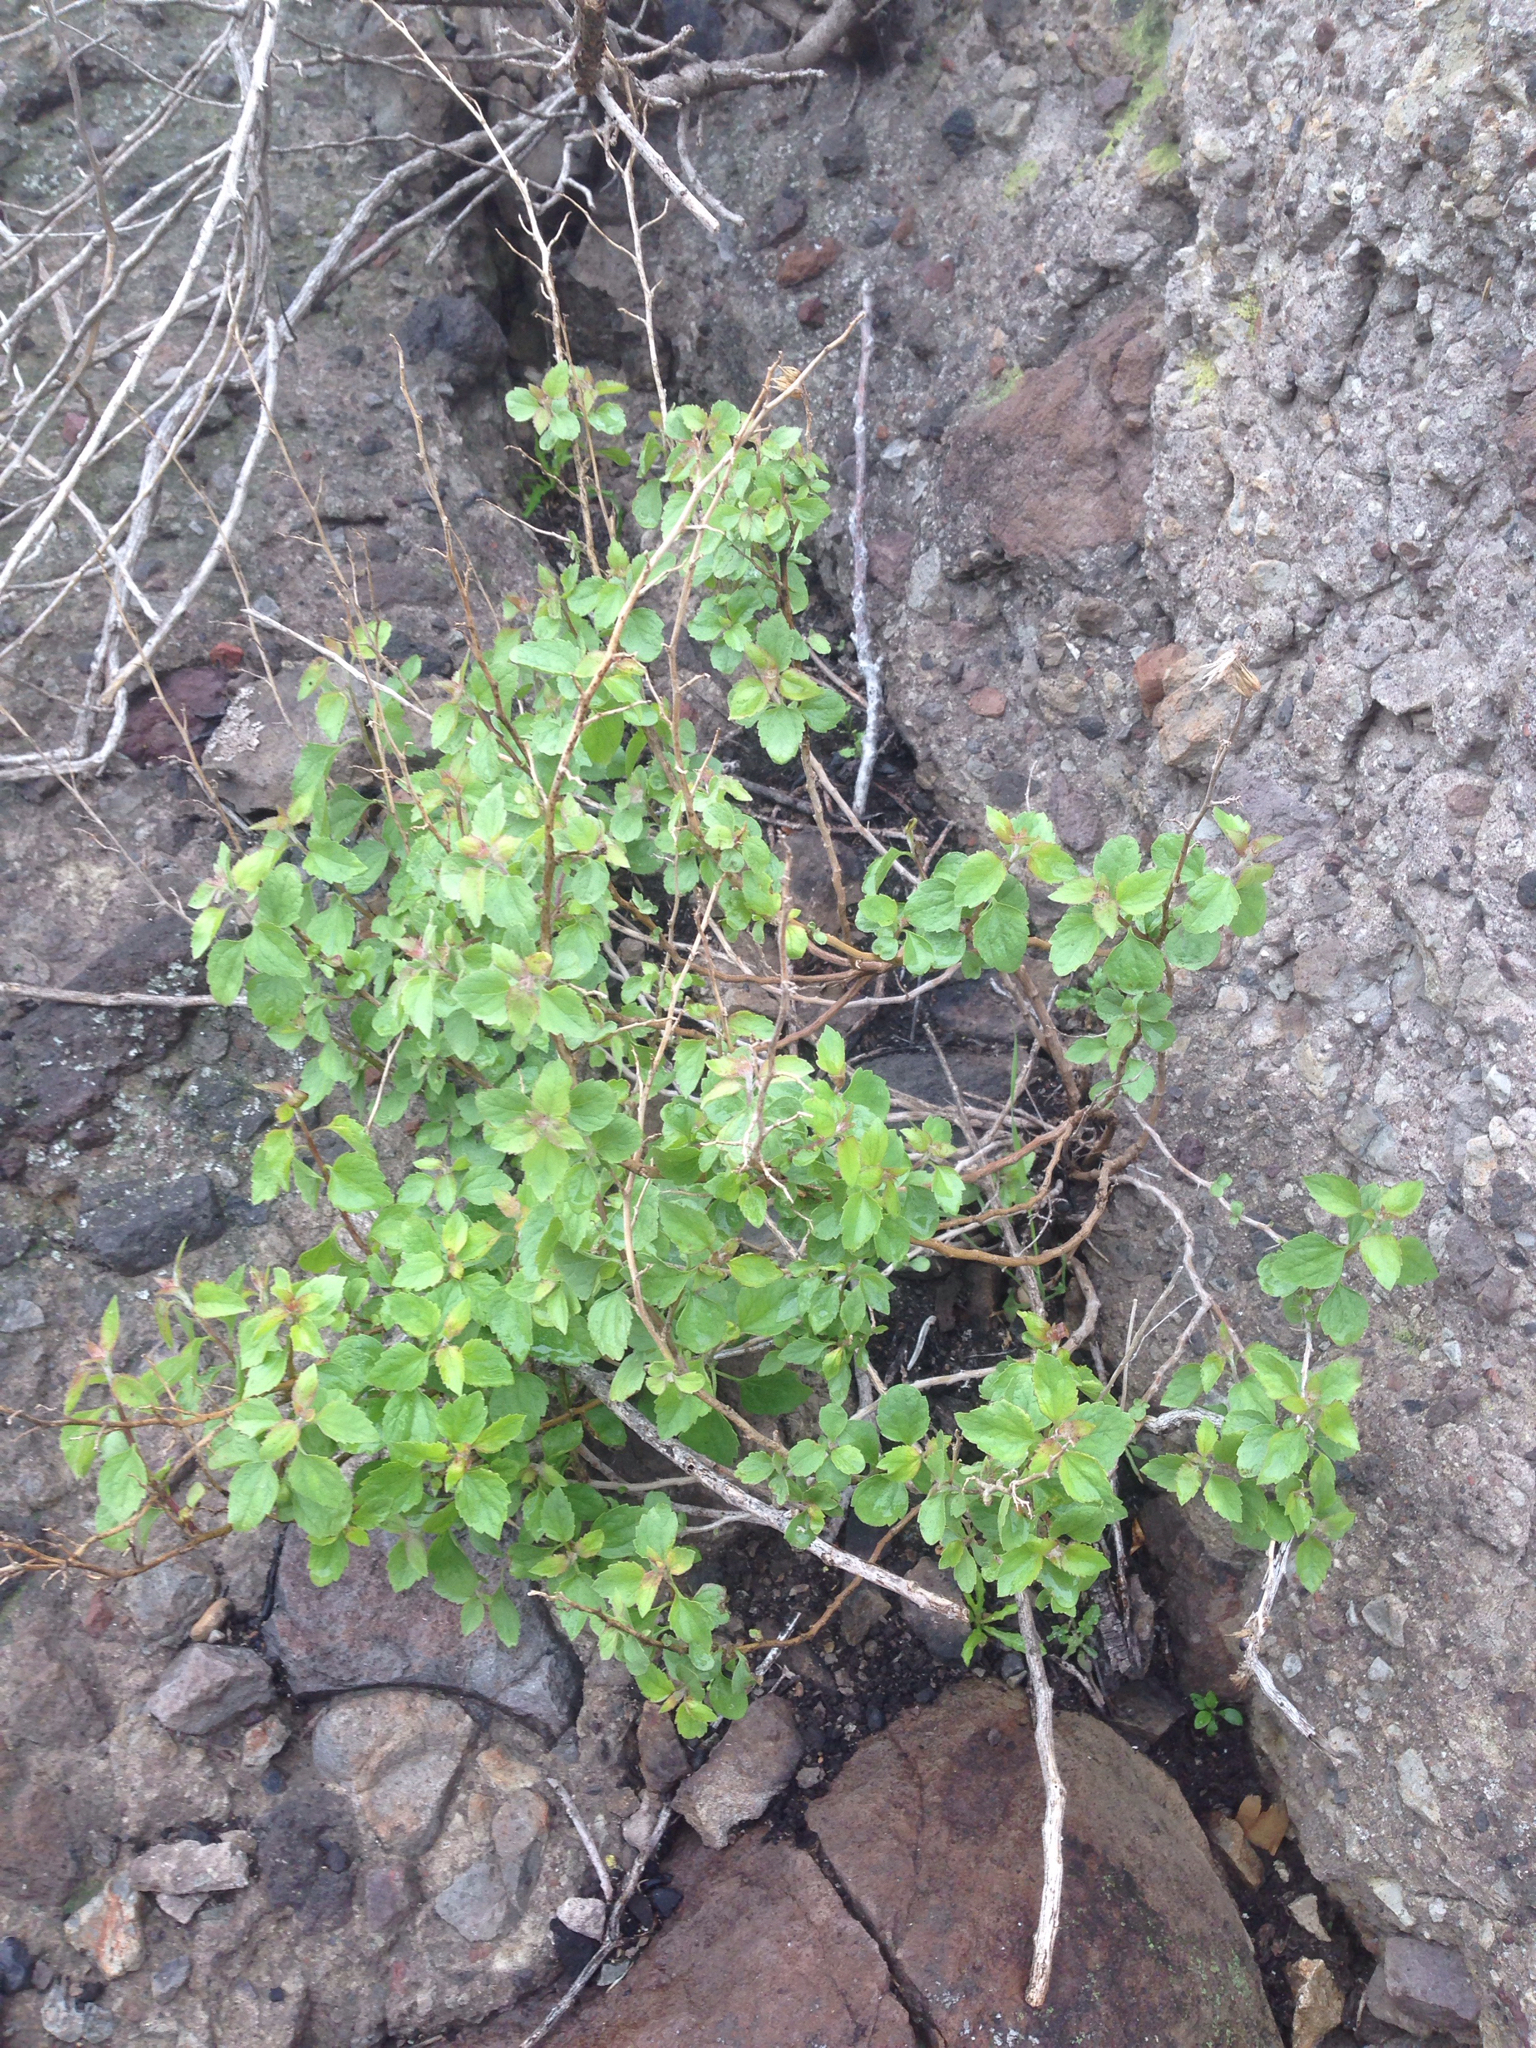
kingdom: Plantae
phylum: Tracheophyta
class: Magnoliopsida
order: Asterales
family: Asteraceae
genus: Brickellia
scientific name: Brickellia californica
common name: California brickellbush
